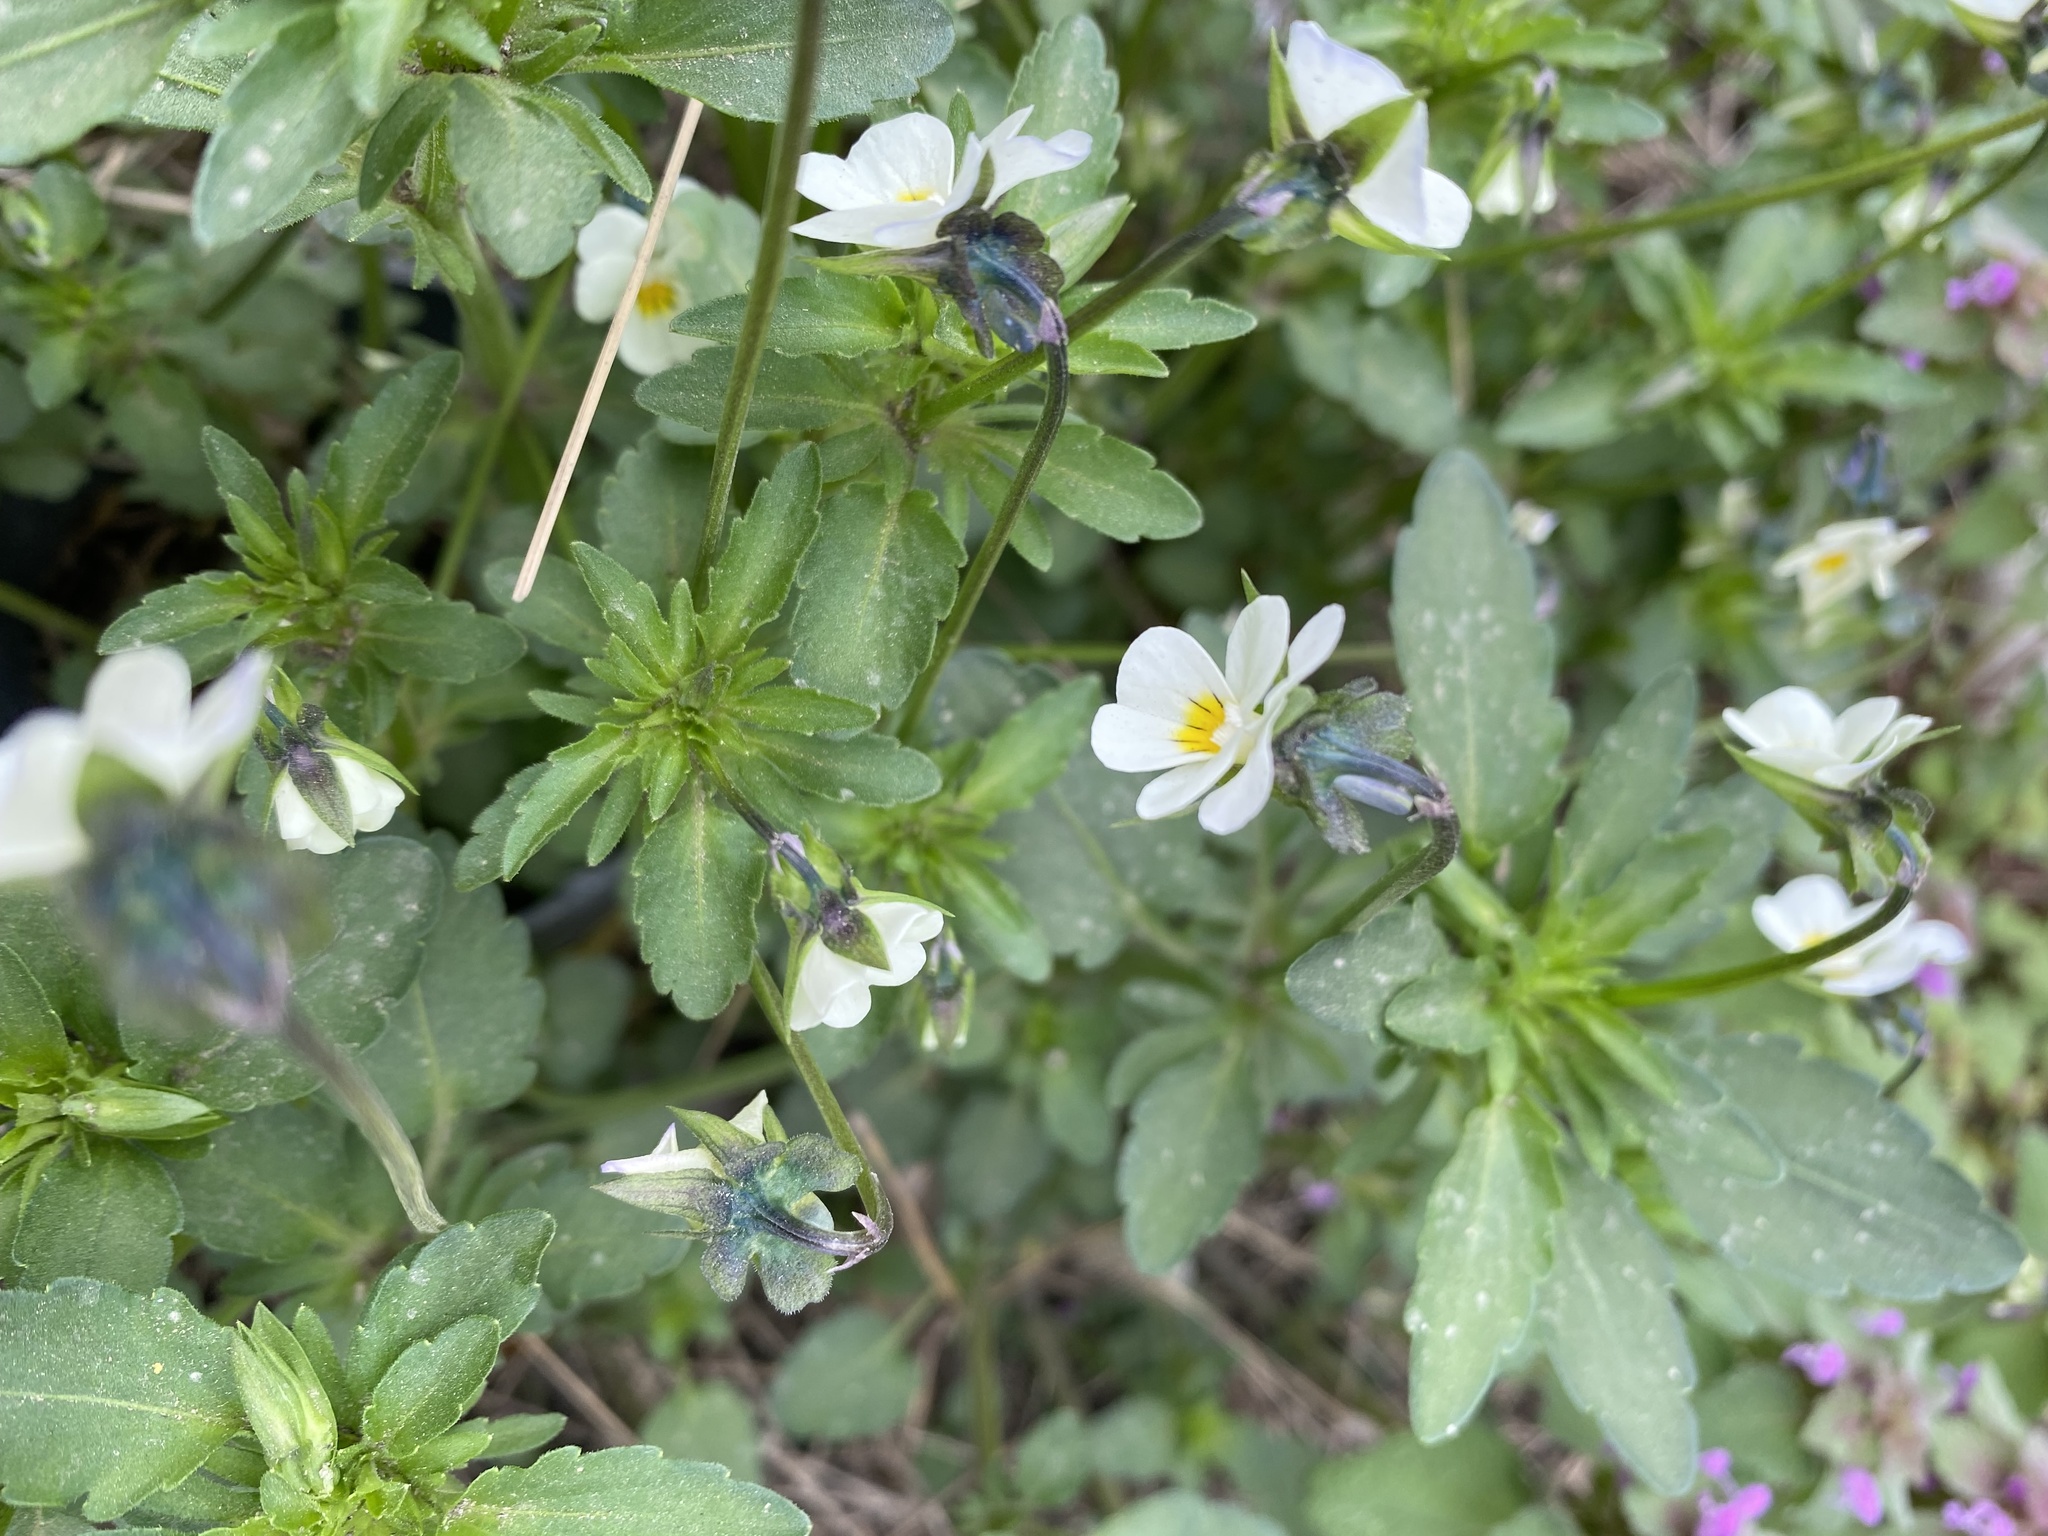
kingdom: Plantae
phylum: Tracheophyta
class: Magnoliopsida
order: Malpighiales
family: Violaceae
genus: Viola
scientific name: Viola arvensis
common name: Field pansy
